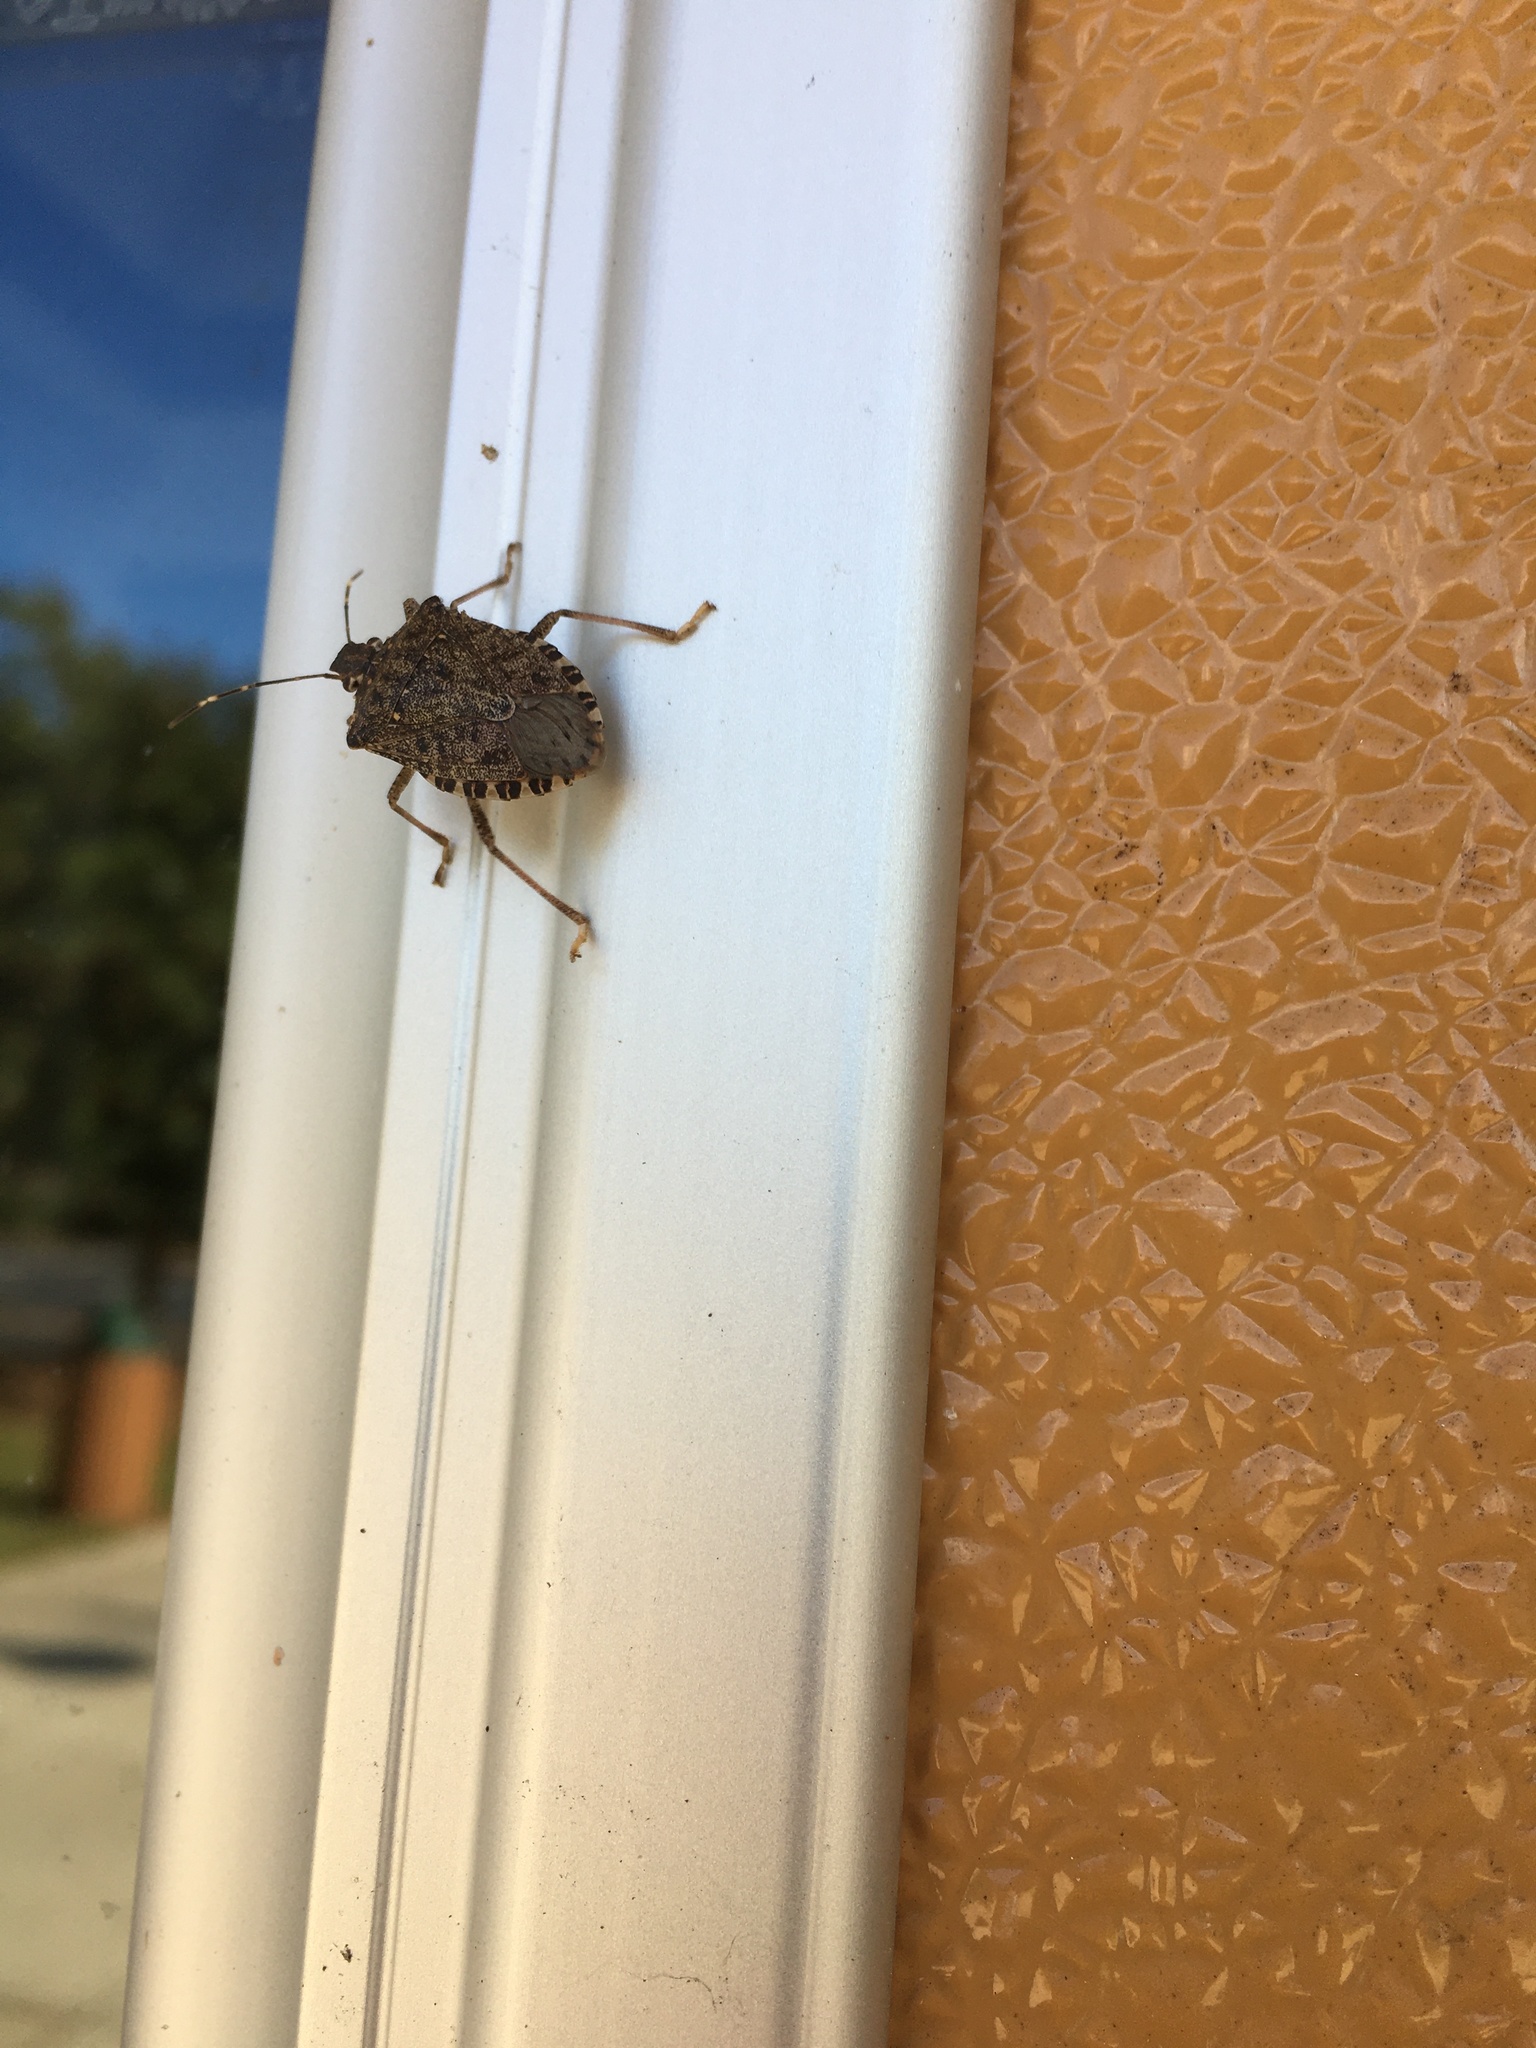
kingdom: Animalia
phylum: Arthropoda
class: Insecta
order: Hemiptera
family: Pentatomidae
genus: Halyomorpha
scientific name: Halyomorpha halys
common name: Brown marmorated stink bug
